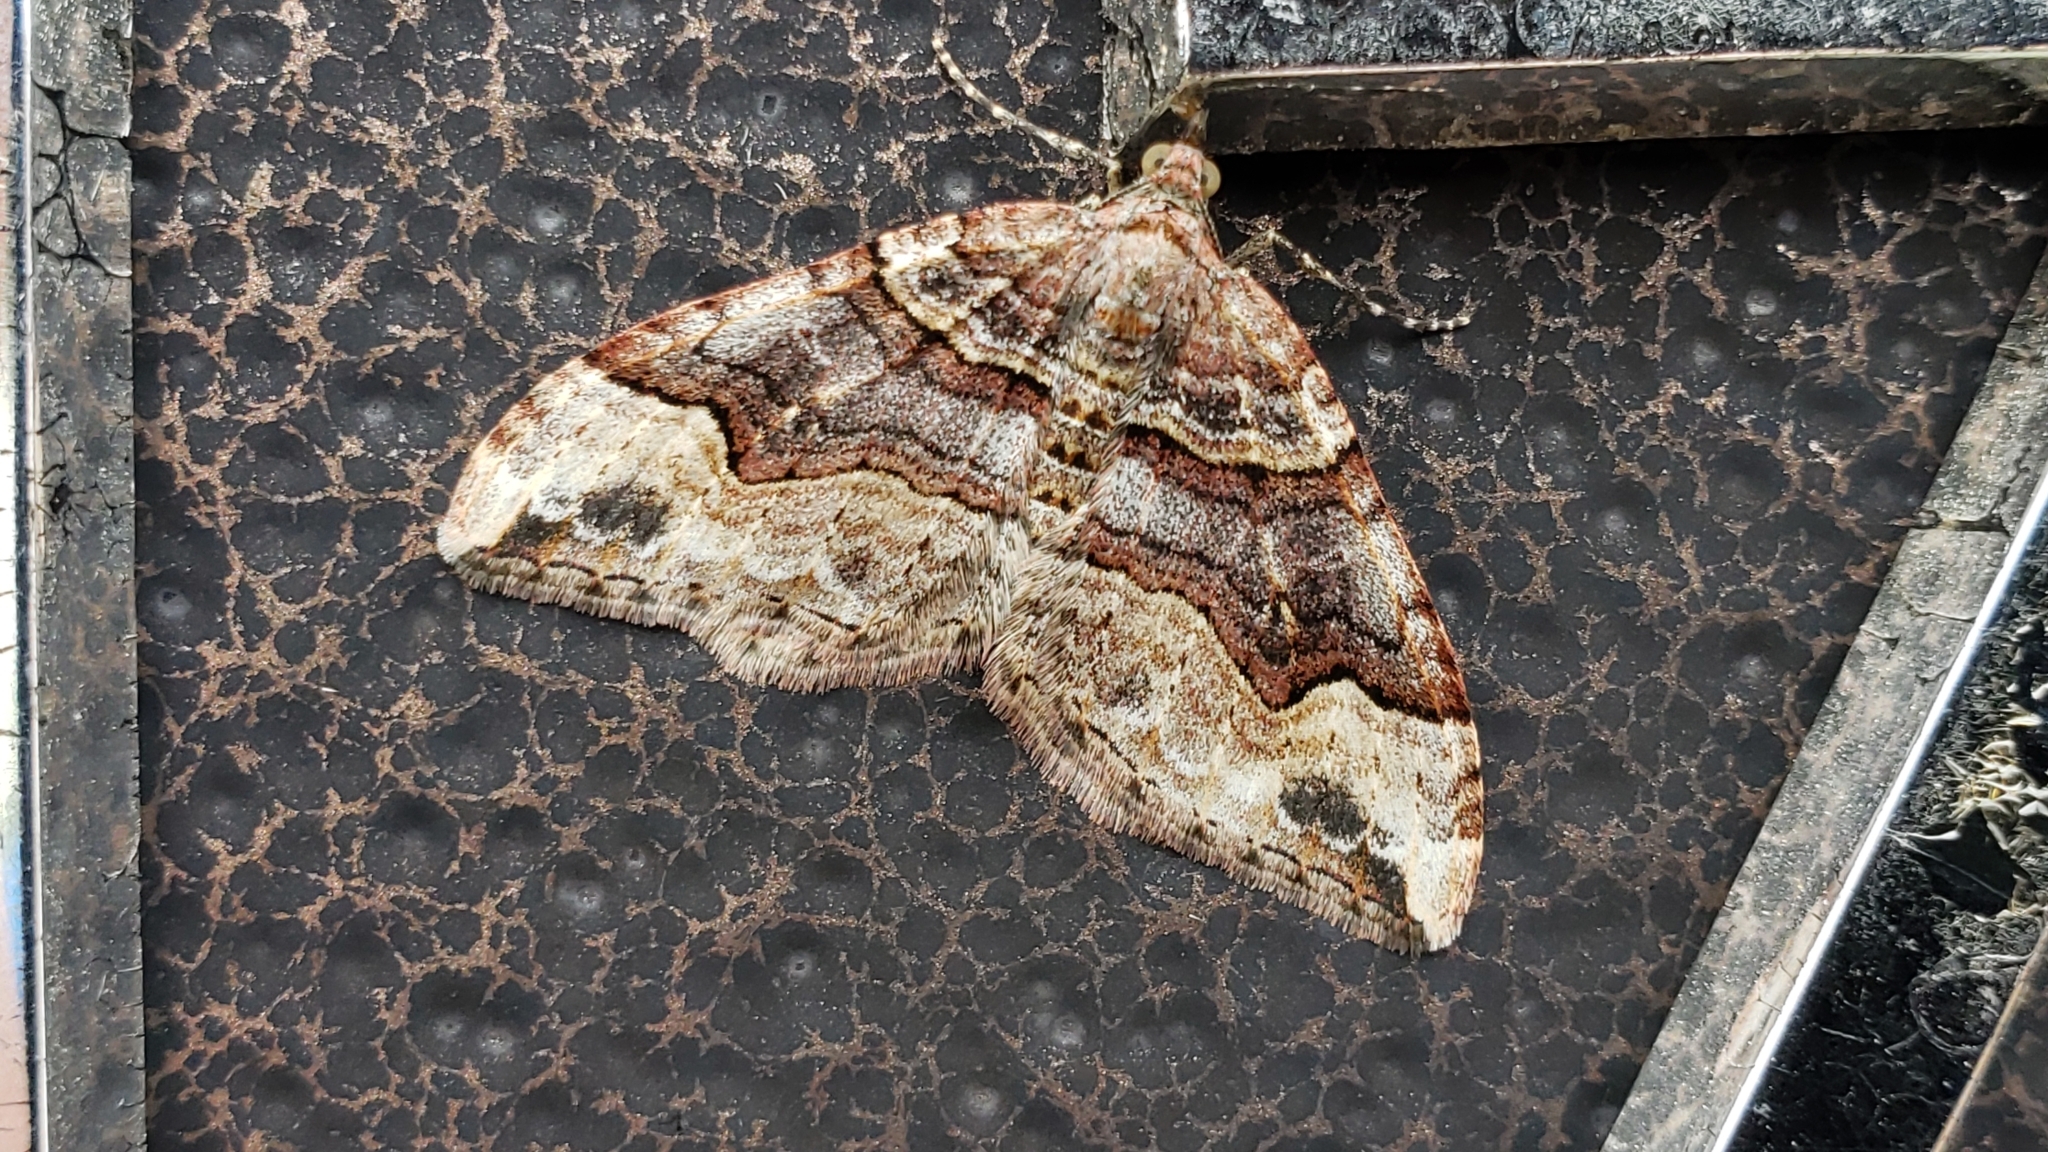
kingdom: Animalia
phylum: Arthropoda
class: Insecta
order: Lepidoptera
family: Geometridae
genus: Xanthorhoe
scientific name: Xanthorhoe defensaria
